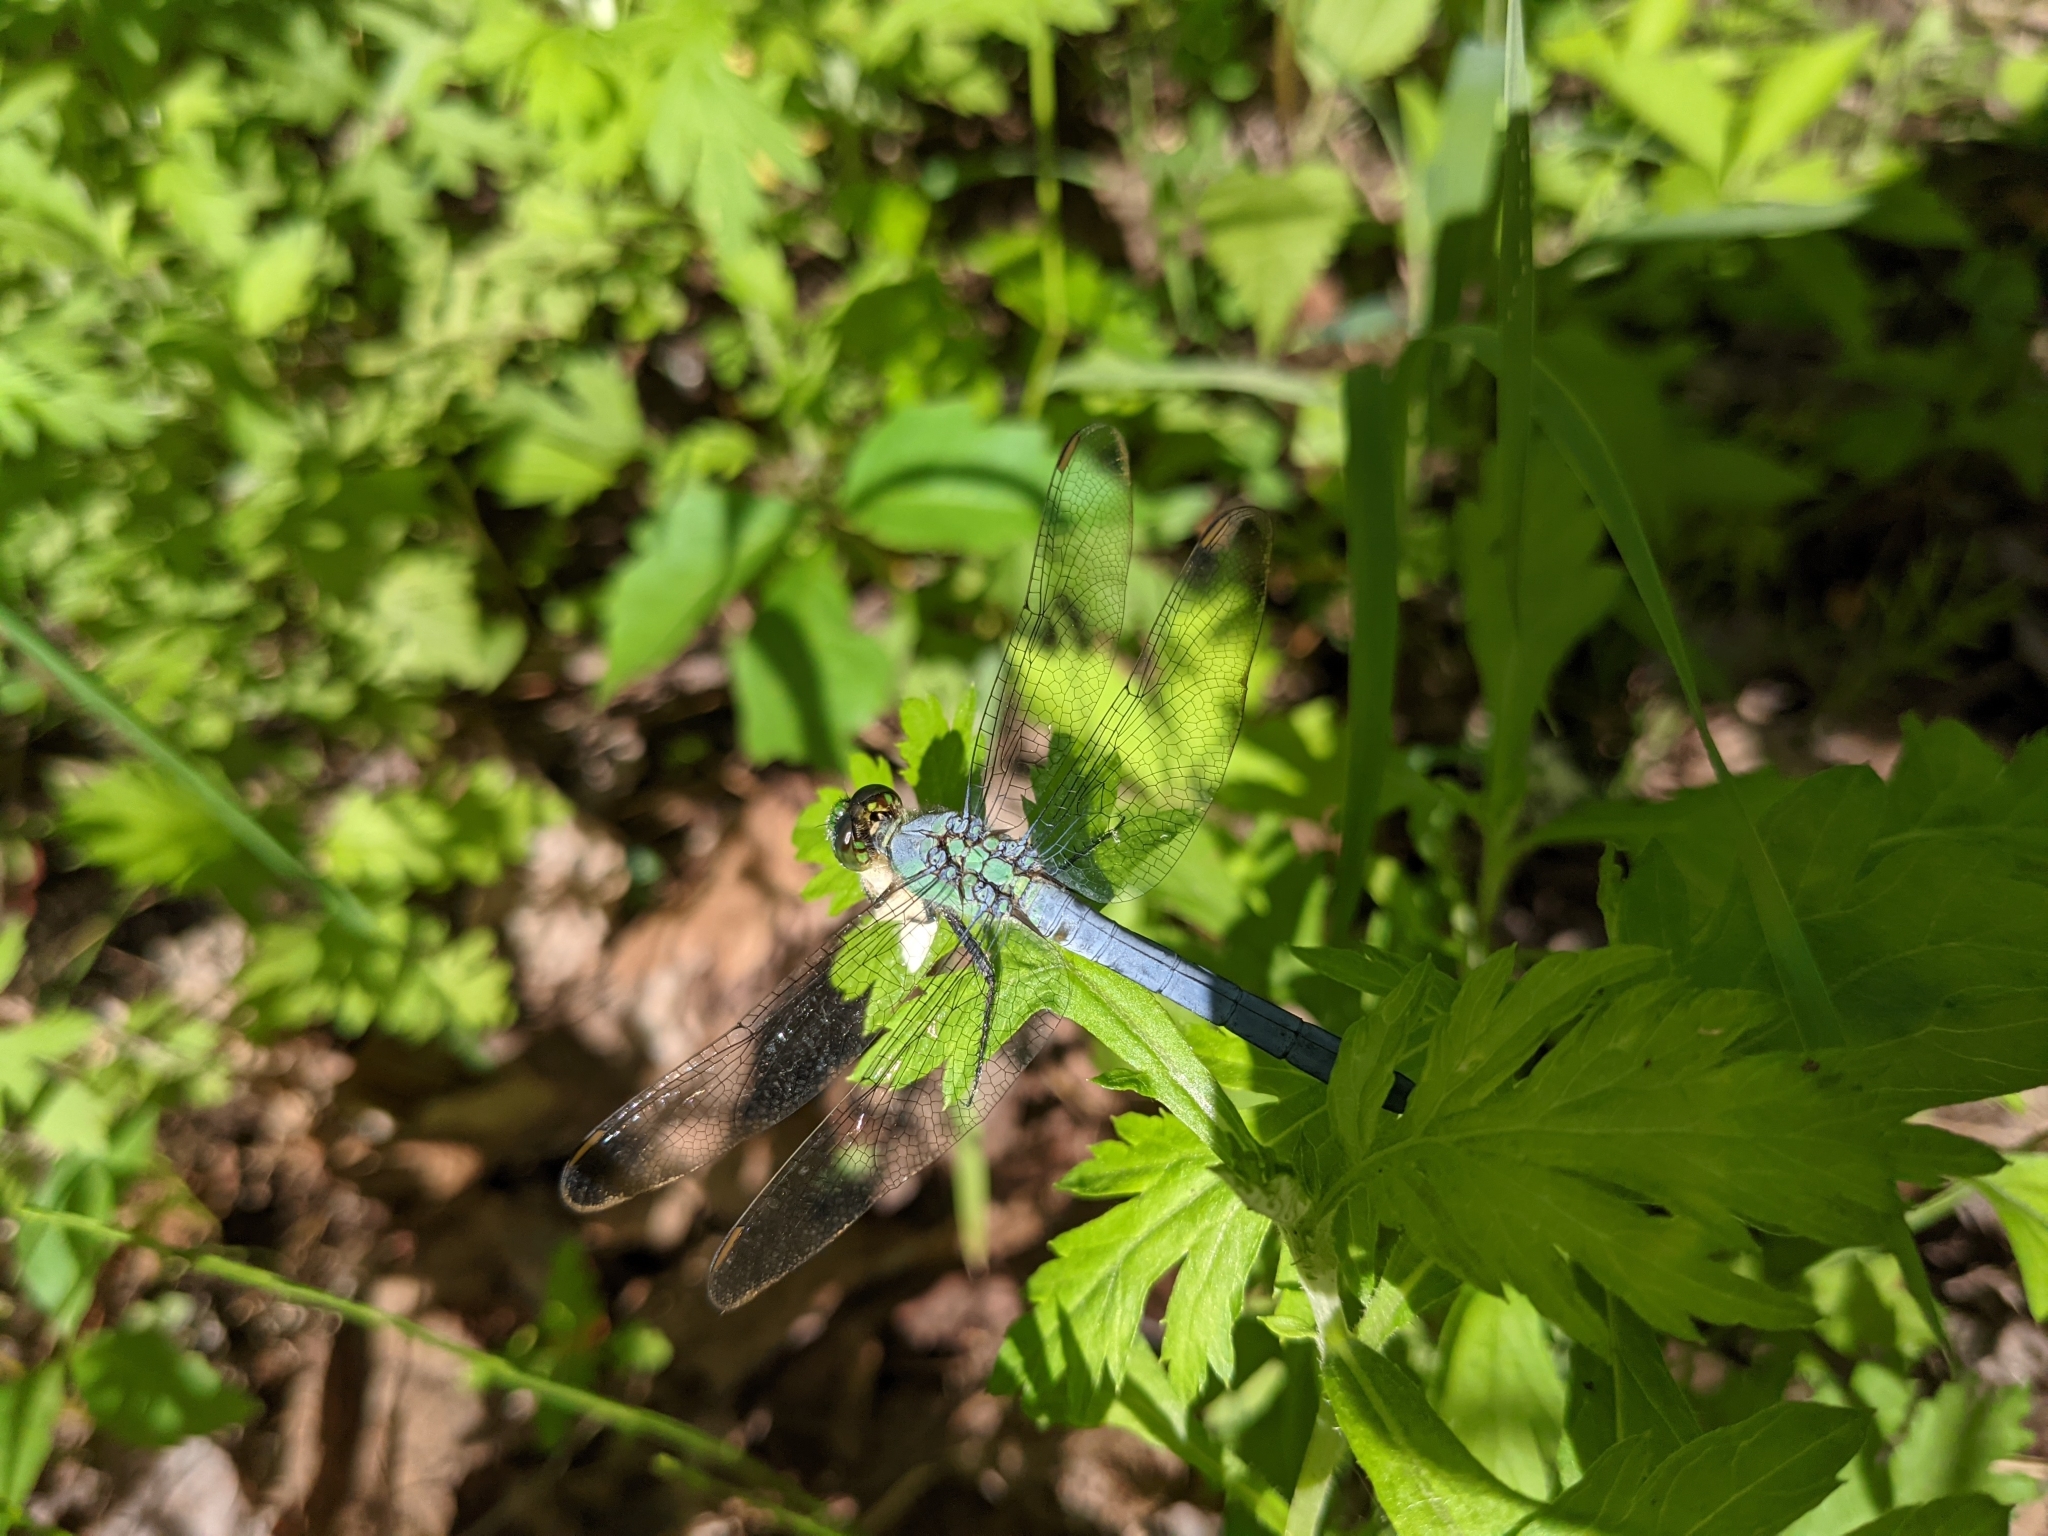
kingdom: Animalia
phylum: Arthropoda
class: Insecta
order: Odonata
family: Libellulidae
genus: Erythemis
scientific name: Erythemis simplicicollis
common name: Eastern pondhawk
